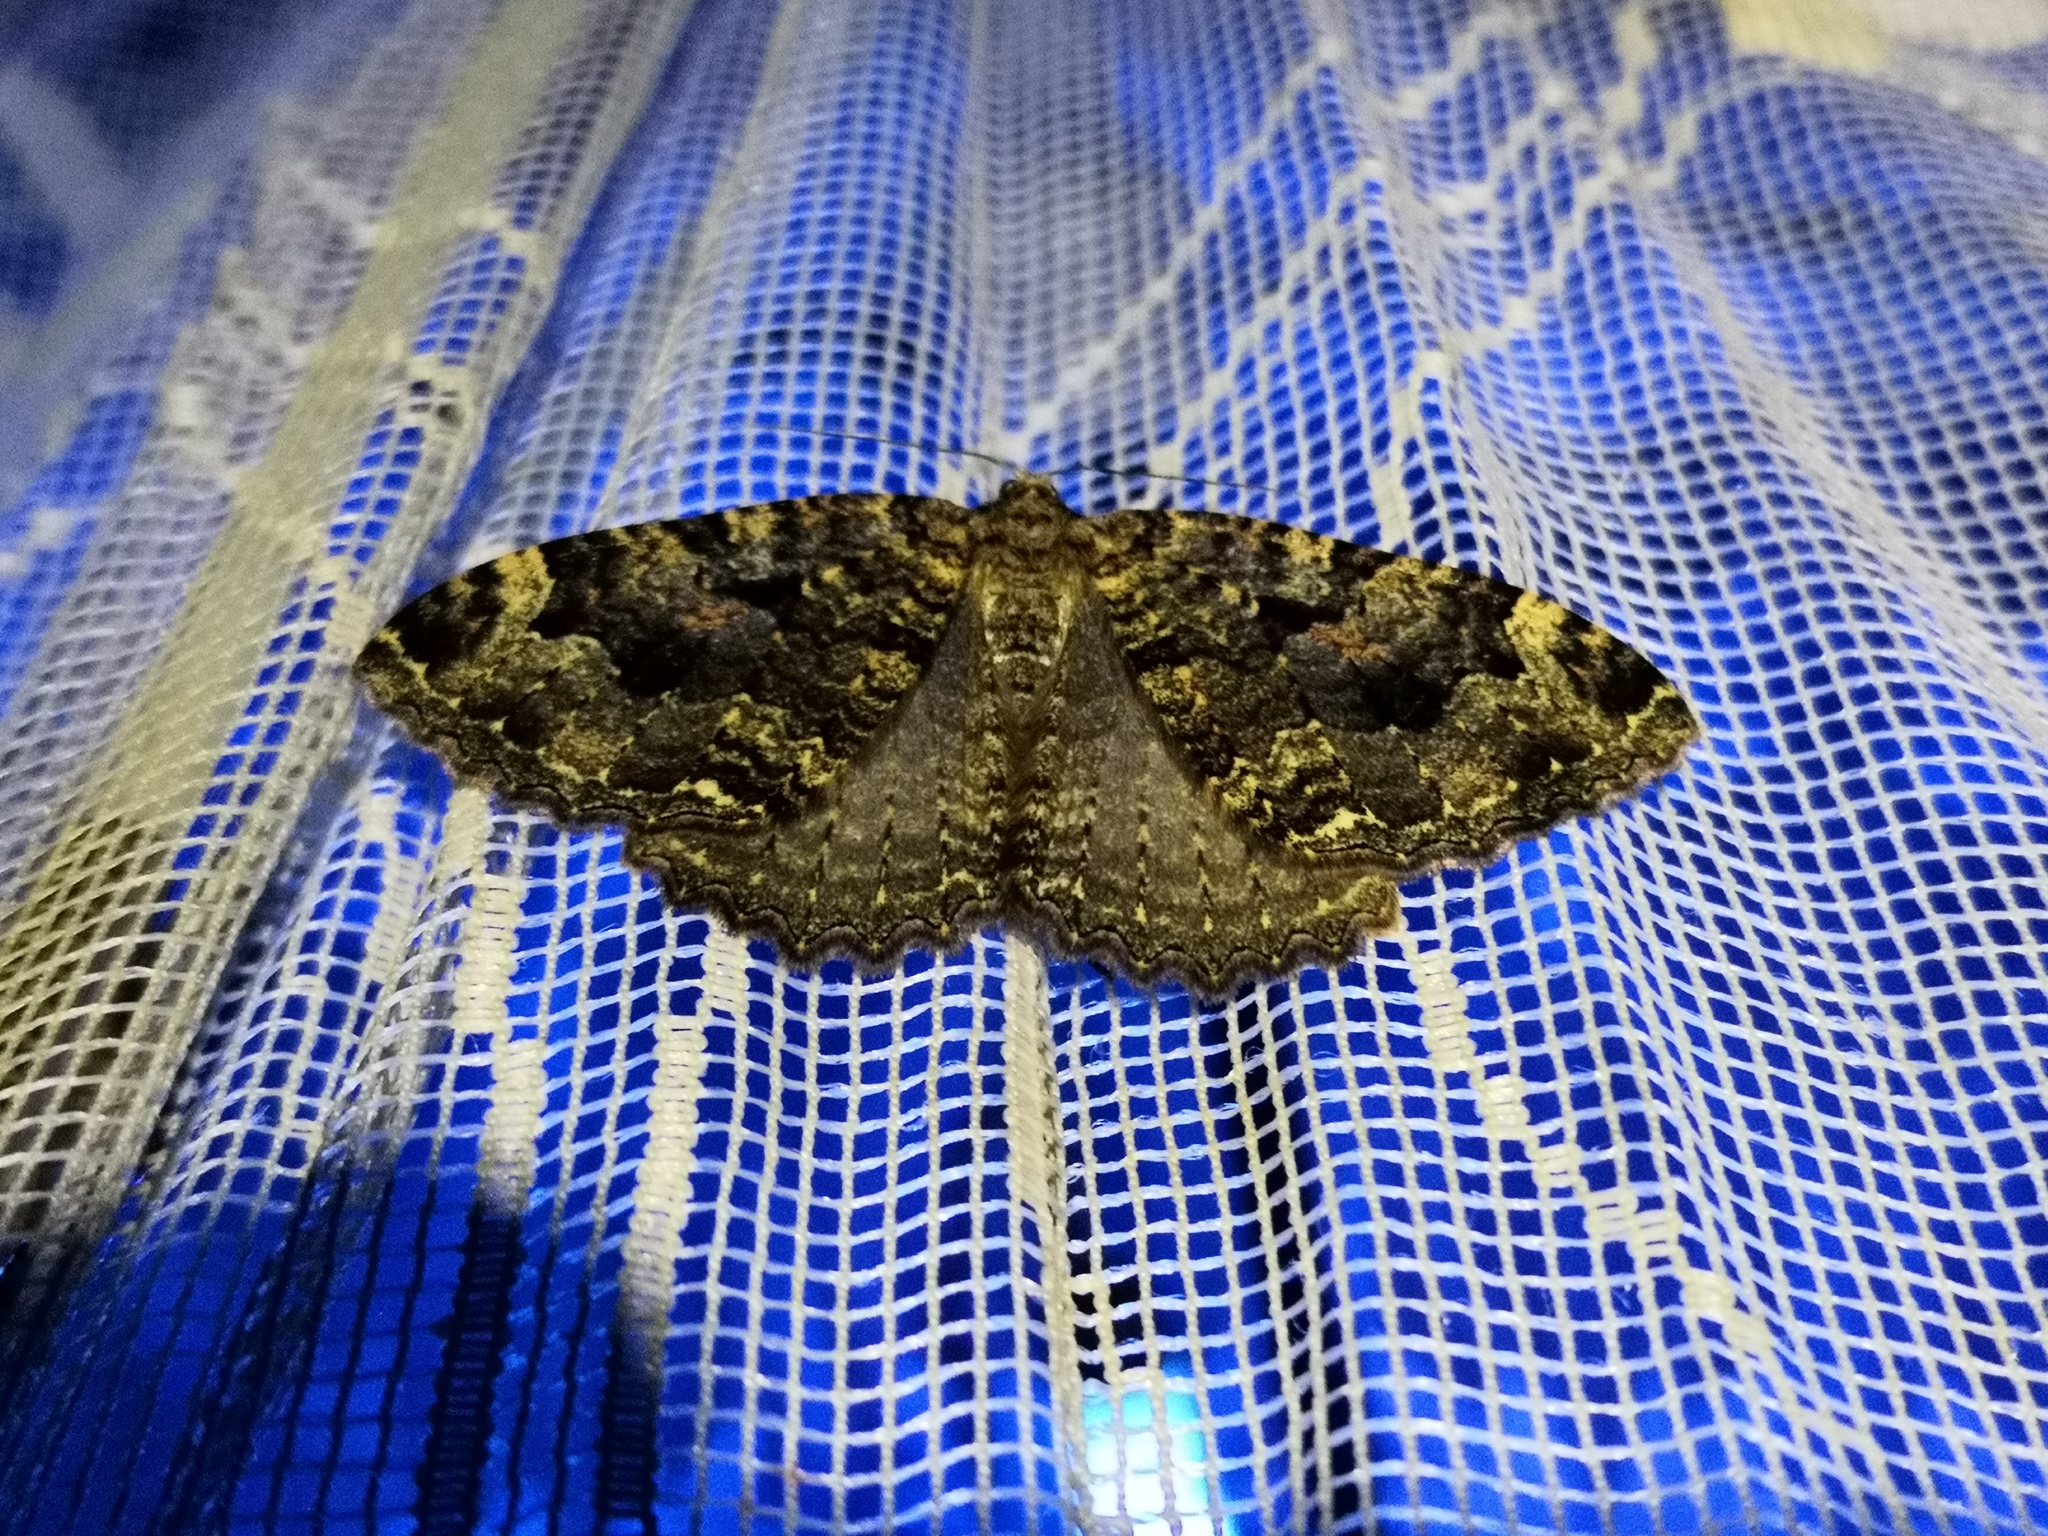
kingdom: Animalia
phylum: Arthropoda
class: Insecta
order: Lepidoptera
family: Geometridae
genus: Triphosa
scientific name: Triphosa dubitata
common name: Tissue
